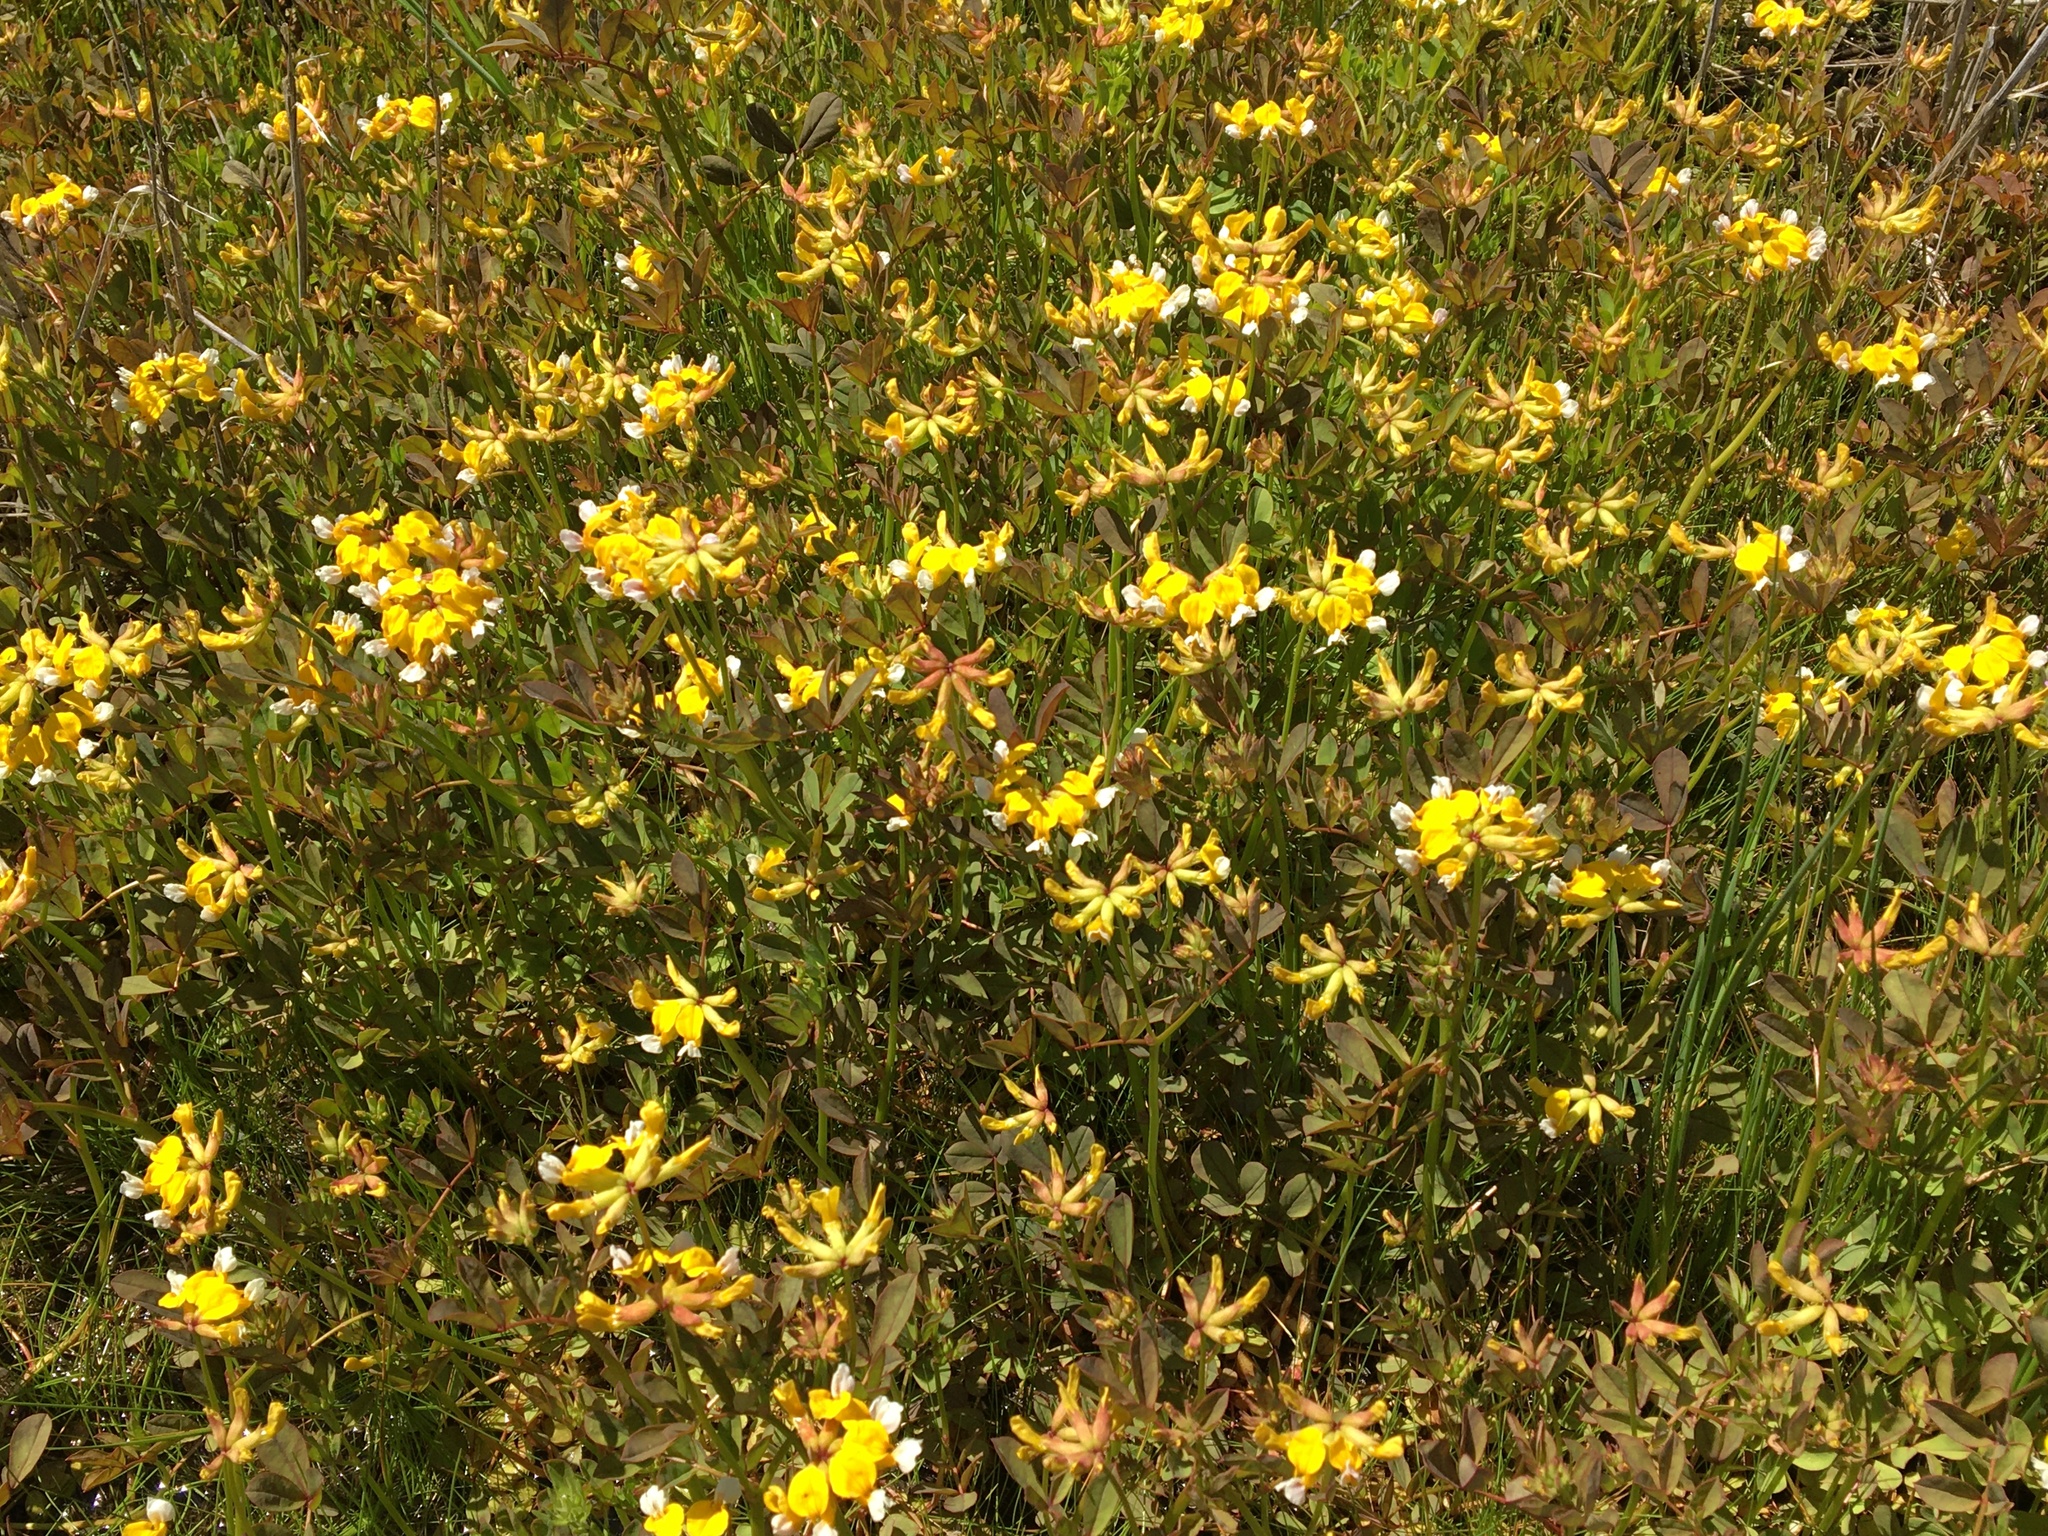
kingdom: Plantae
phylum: Tracheophyta
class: Magnoliopsida
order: Fabales
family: Fabaceae
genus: Hosackia
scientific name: Hosackia pinnata
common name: Bog bird's-foot trefoil
